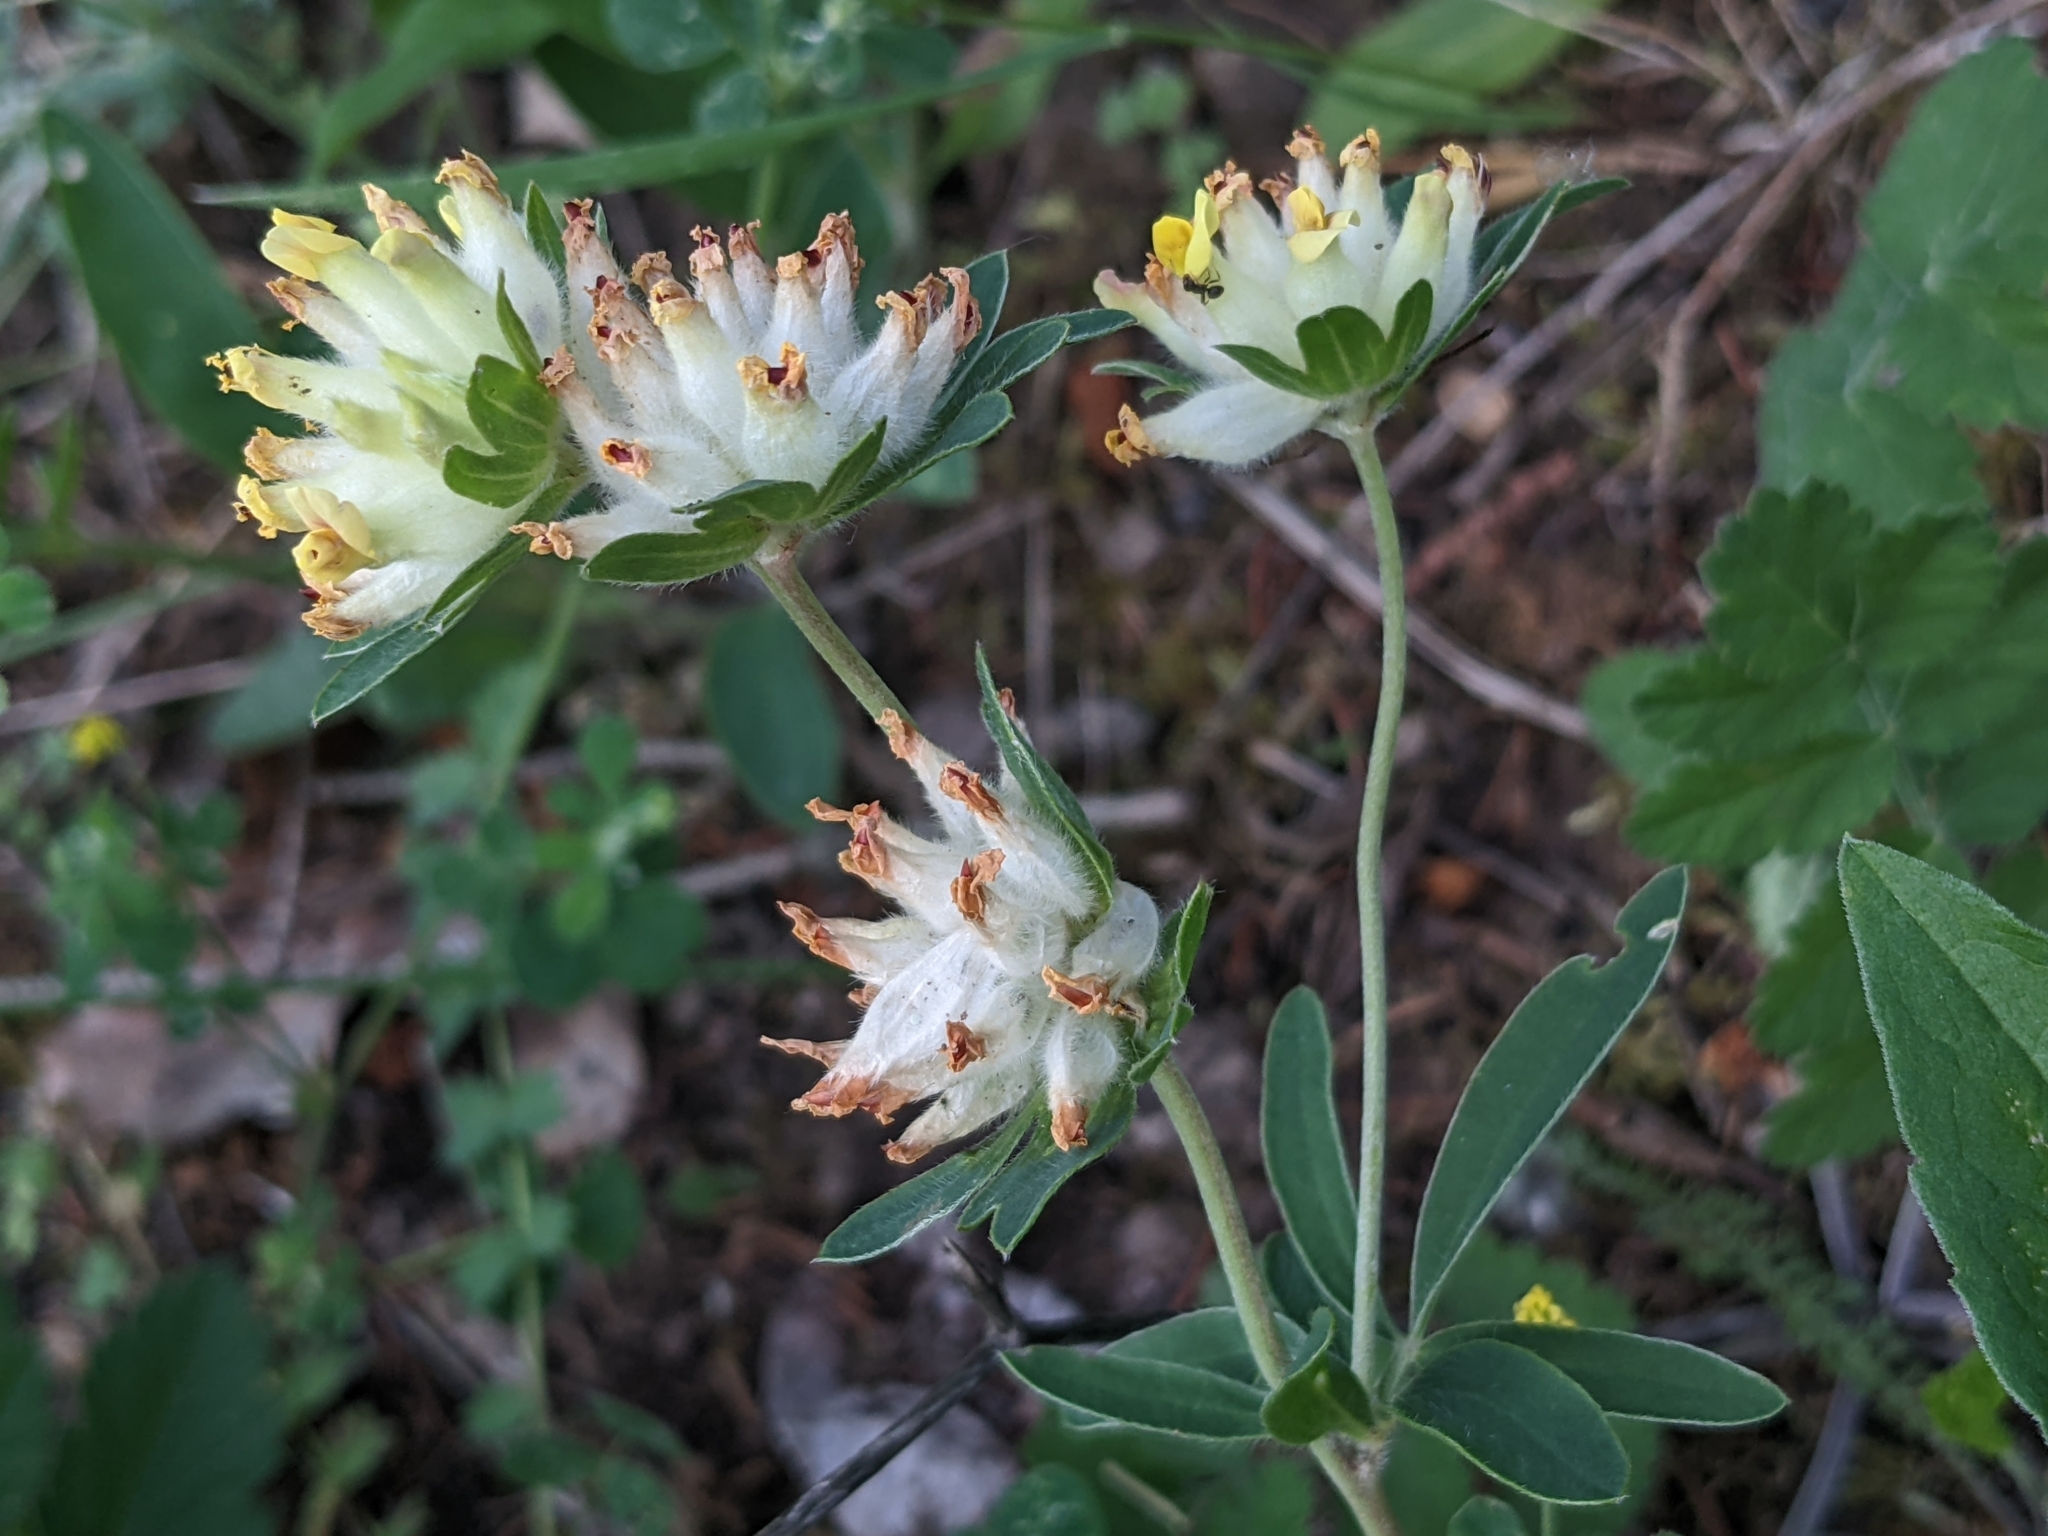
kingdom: Plantae
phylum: Tracheophyta
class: Magnoliopsida
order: Fabales
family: Fabaceae
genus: Anthyllis
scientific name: Anthyllis vulneraria
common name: Kidney vetch
